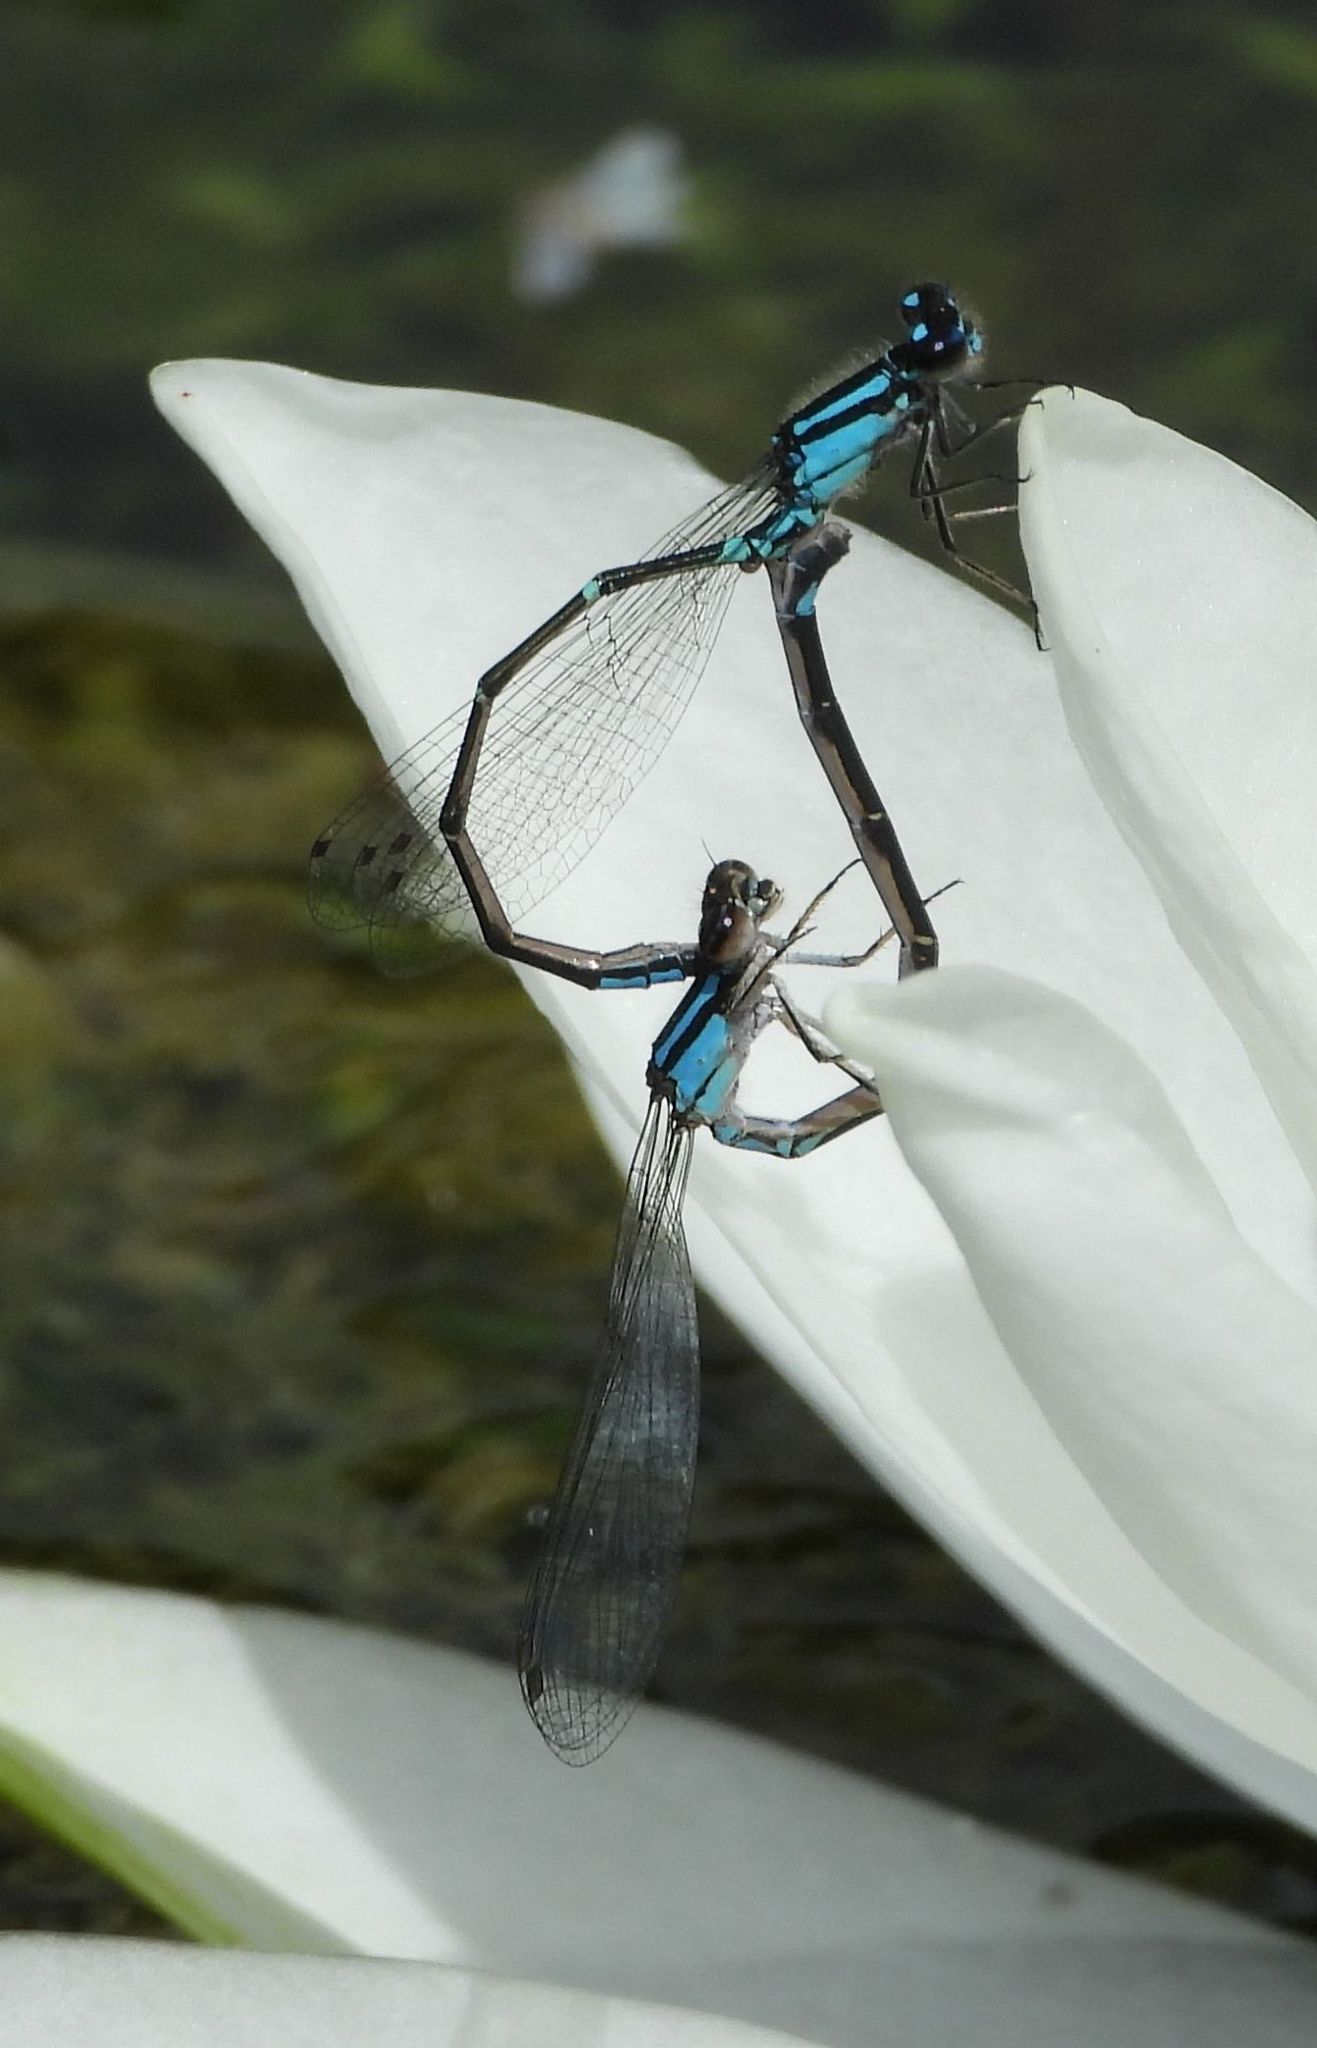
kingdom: Animalia
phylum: Arthropoda
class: Insecta
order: Odonata
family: Coenagrionidae
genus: Enallagma
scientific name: Enallagma geminatum
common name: Skimming bluet
